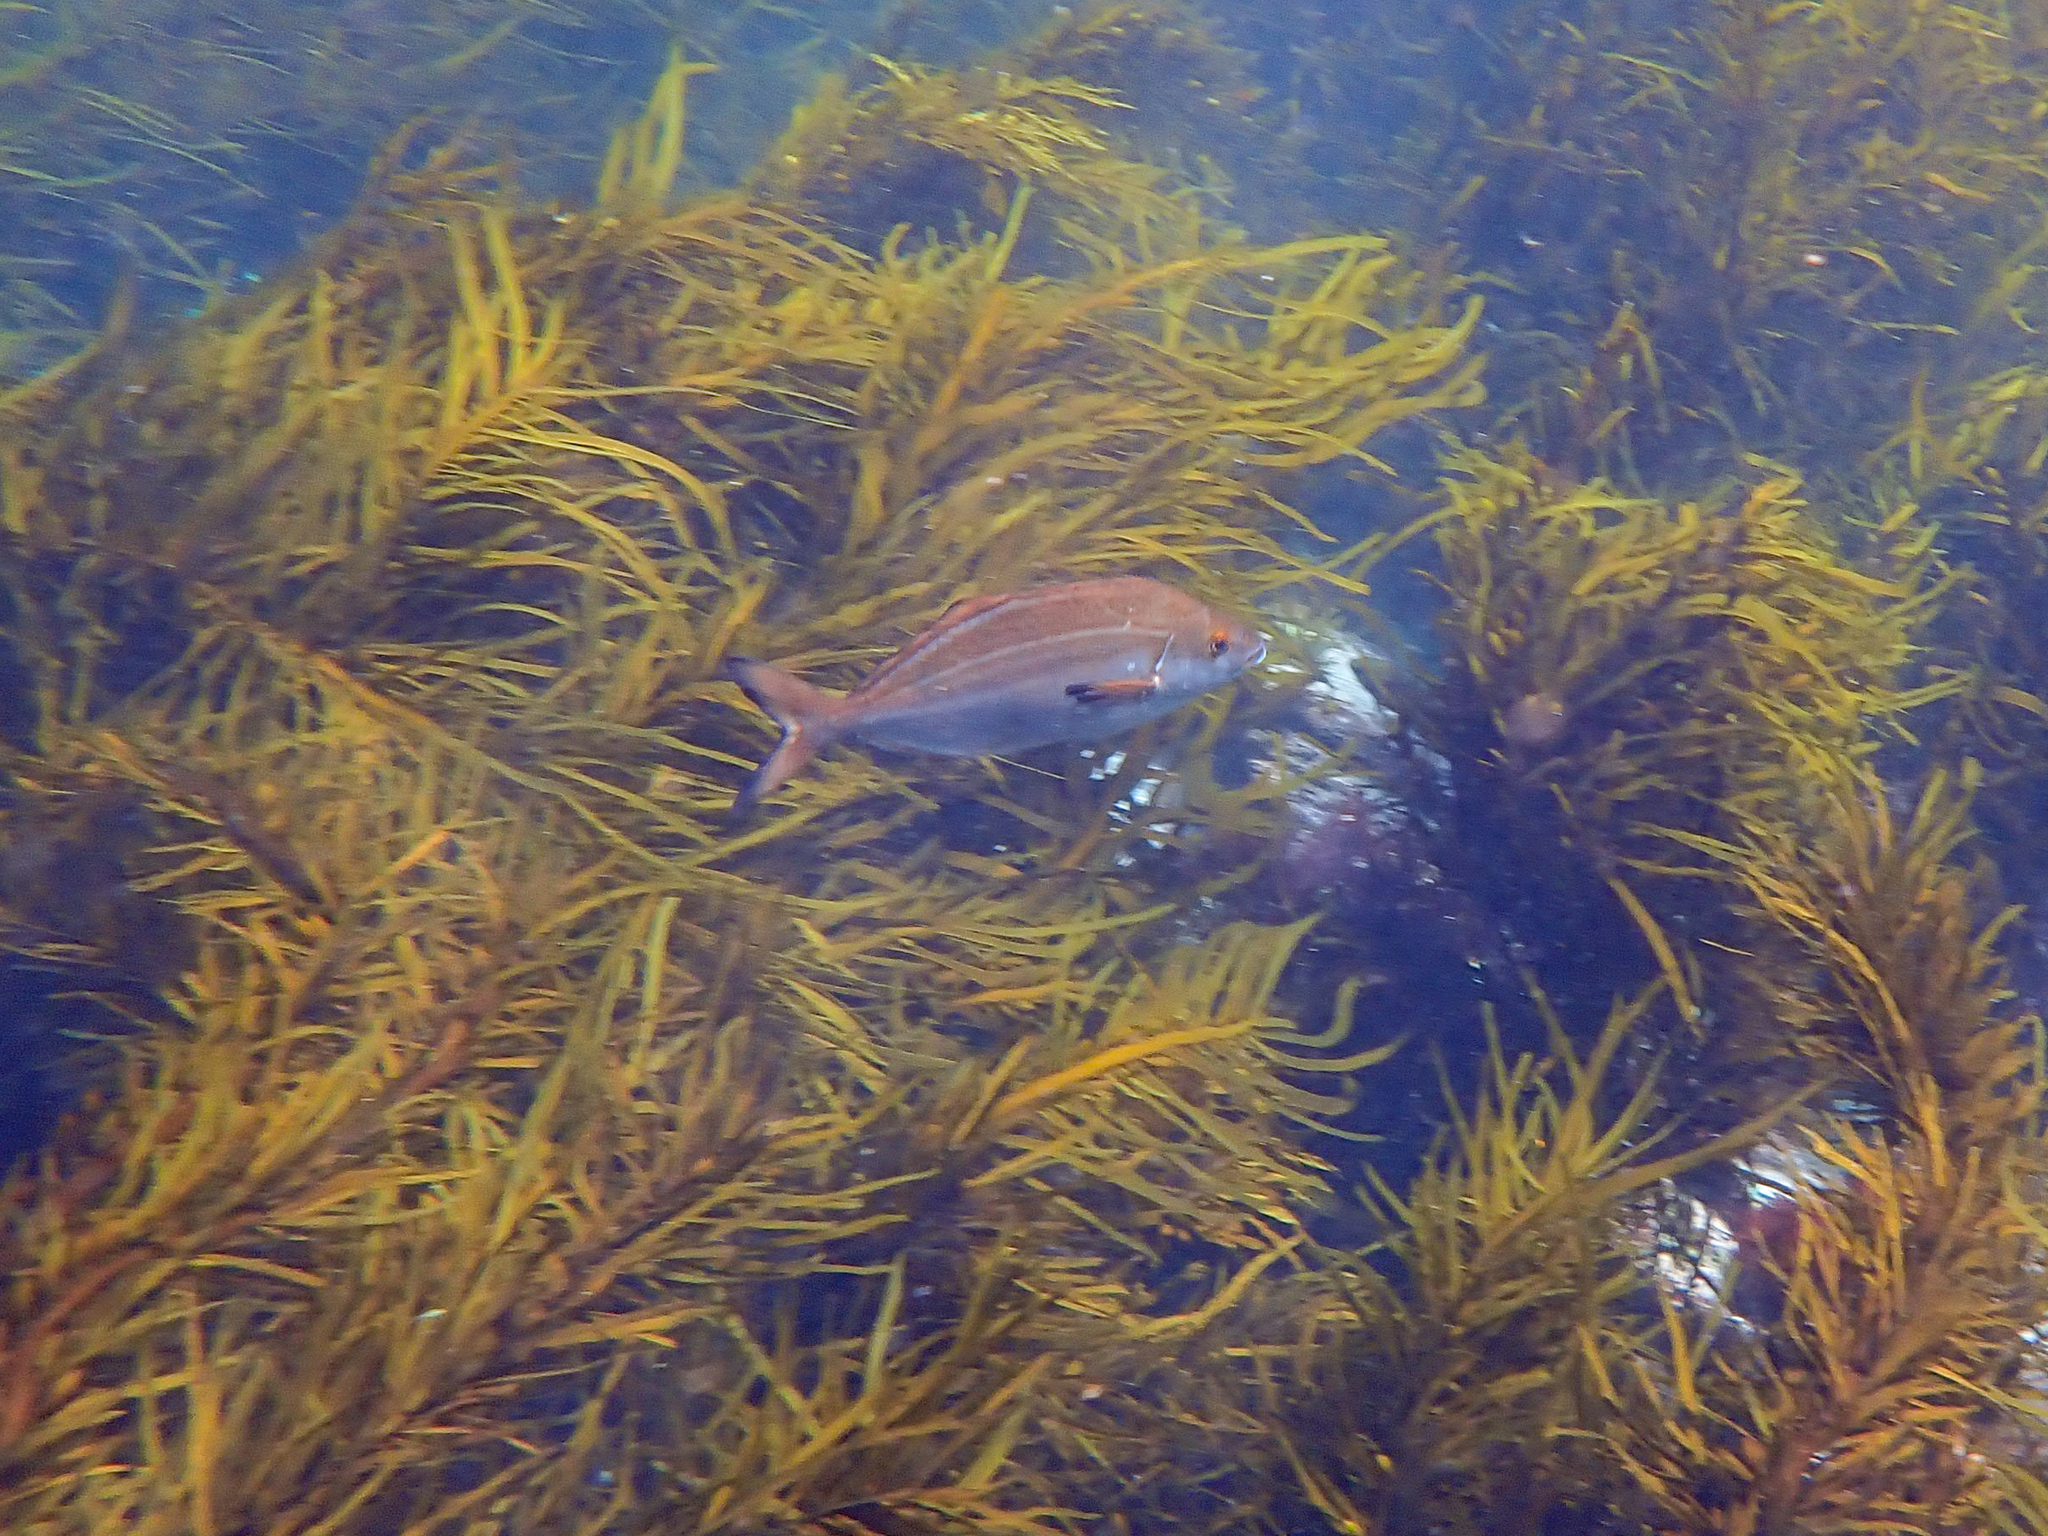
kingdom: Animalia
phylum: Chordata
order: Perciformes
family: Latridae
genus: Latridopsis
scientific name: Latridopsis forsteri
